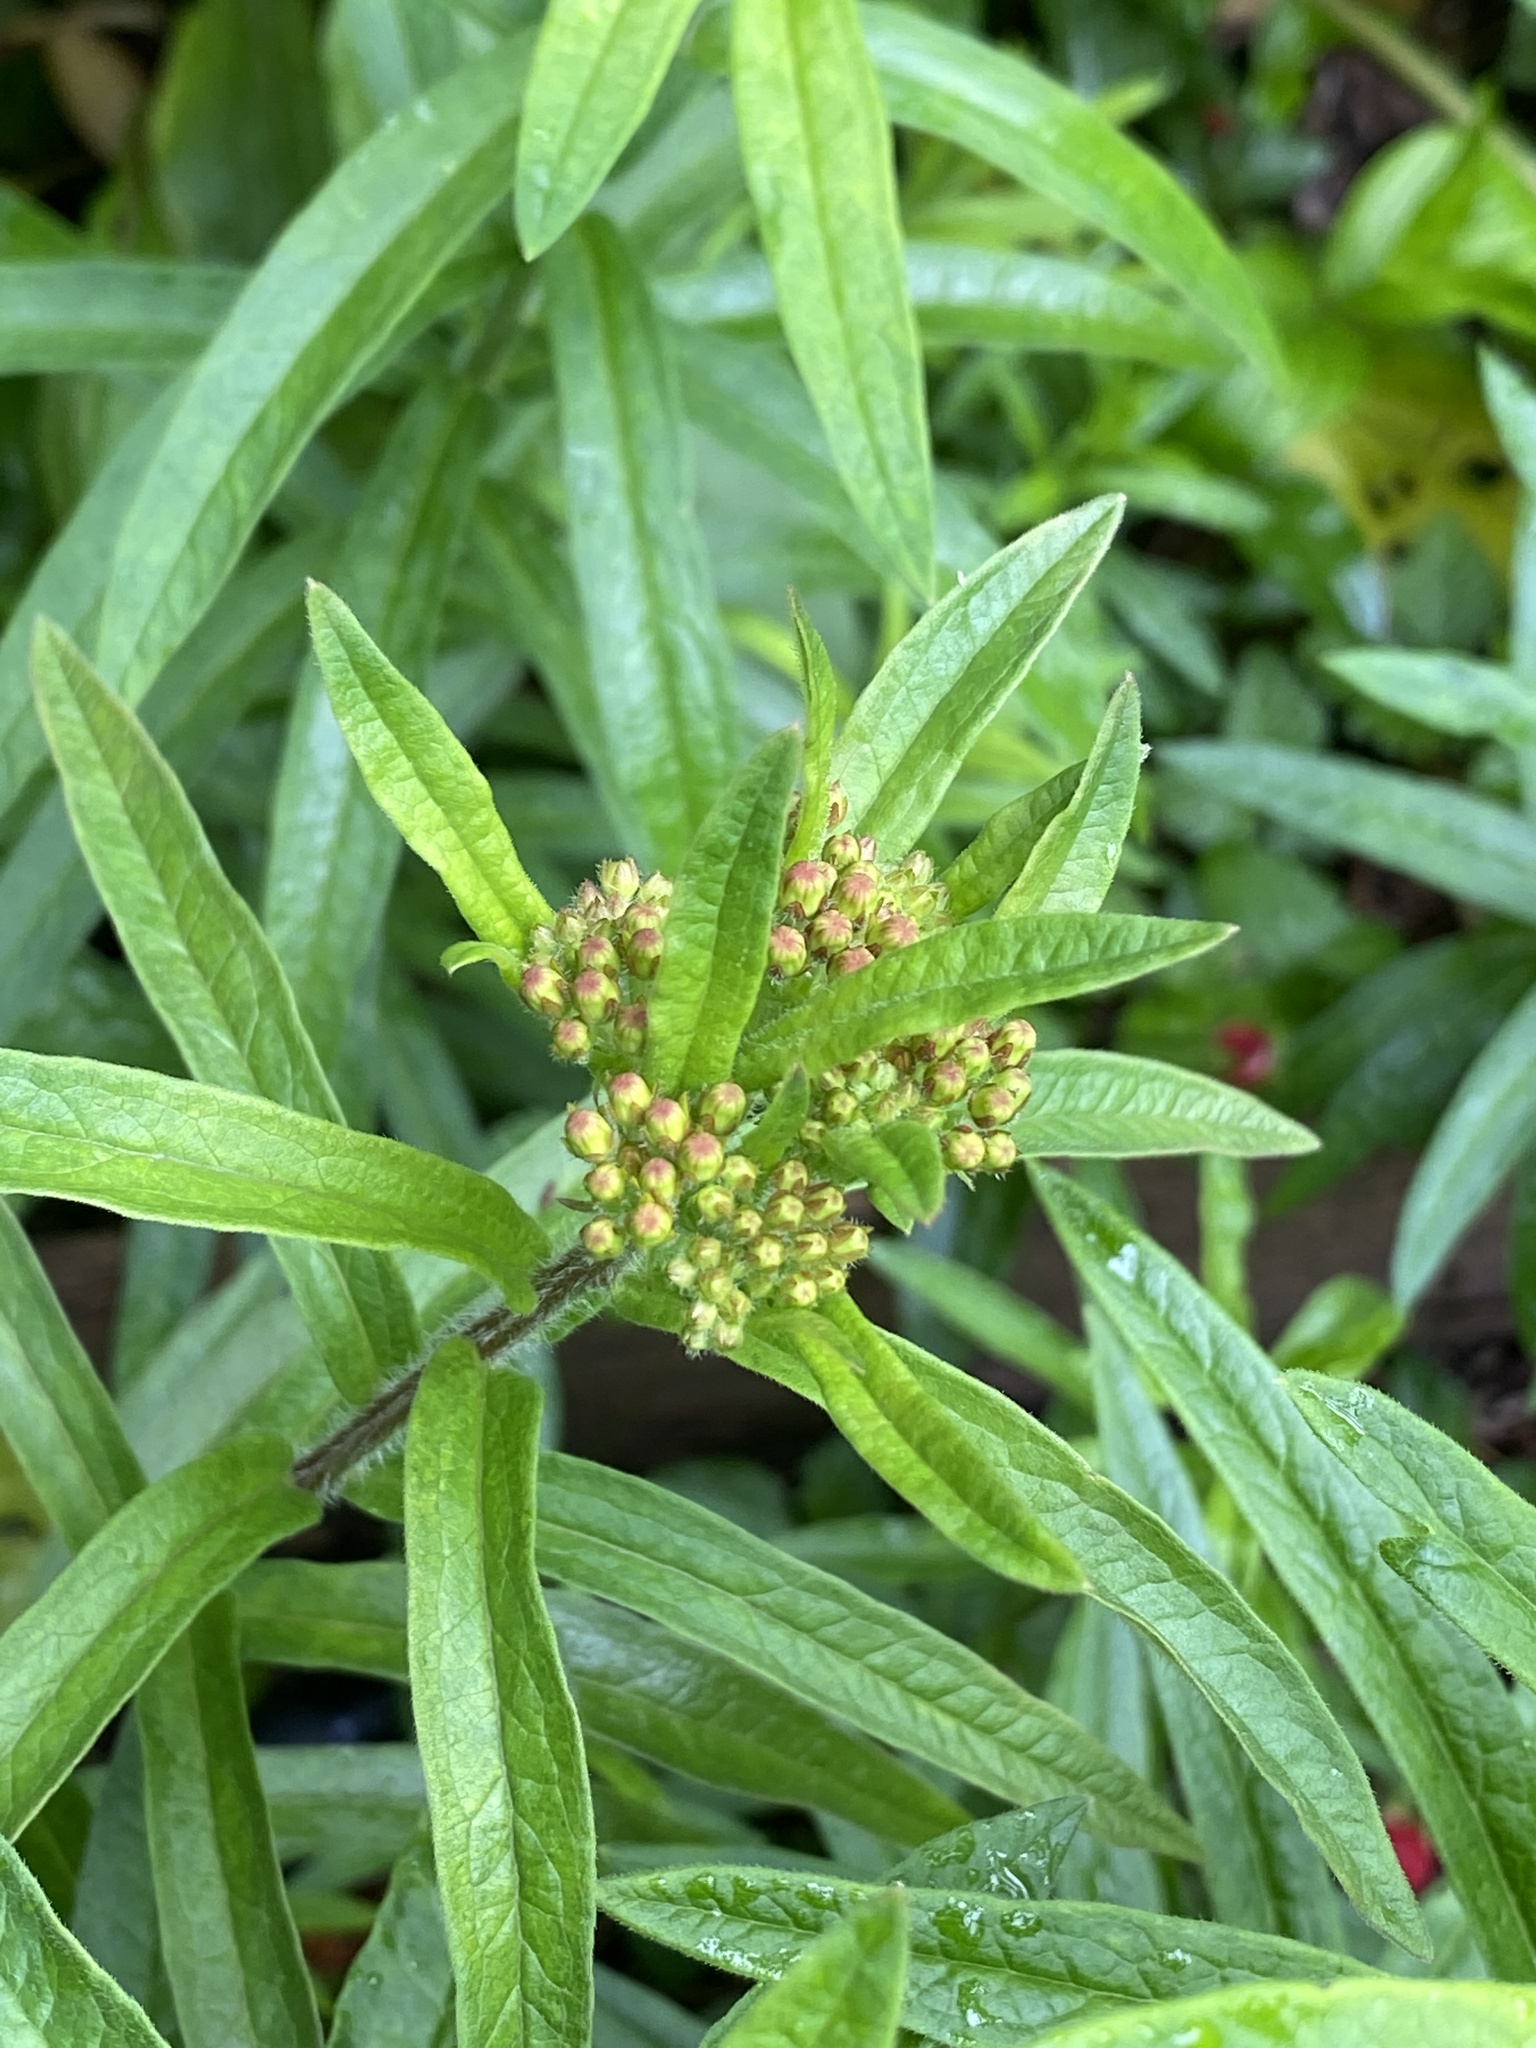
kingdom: Plantae
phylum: Tracheophyta
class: Magnoliopsida
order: Gentianales
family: Apocynaceae
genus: Asclepias
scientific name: Asclepias tuberosa
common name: Butterfly milkweed
